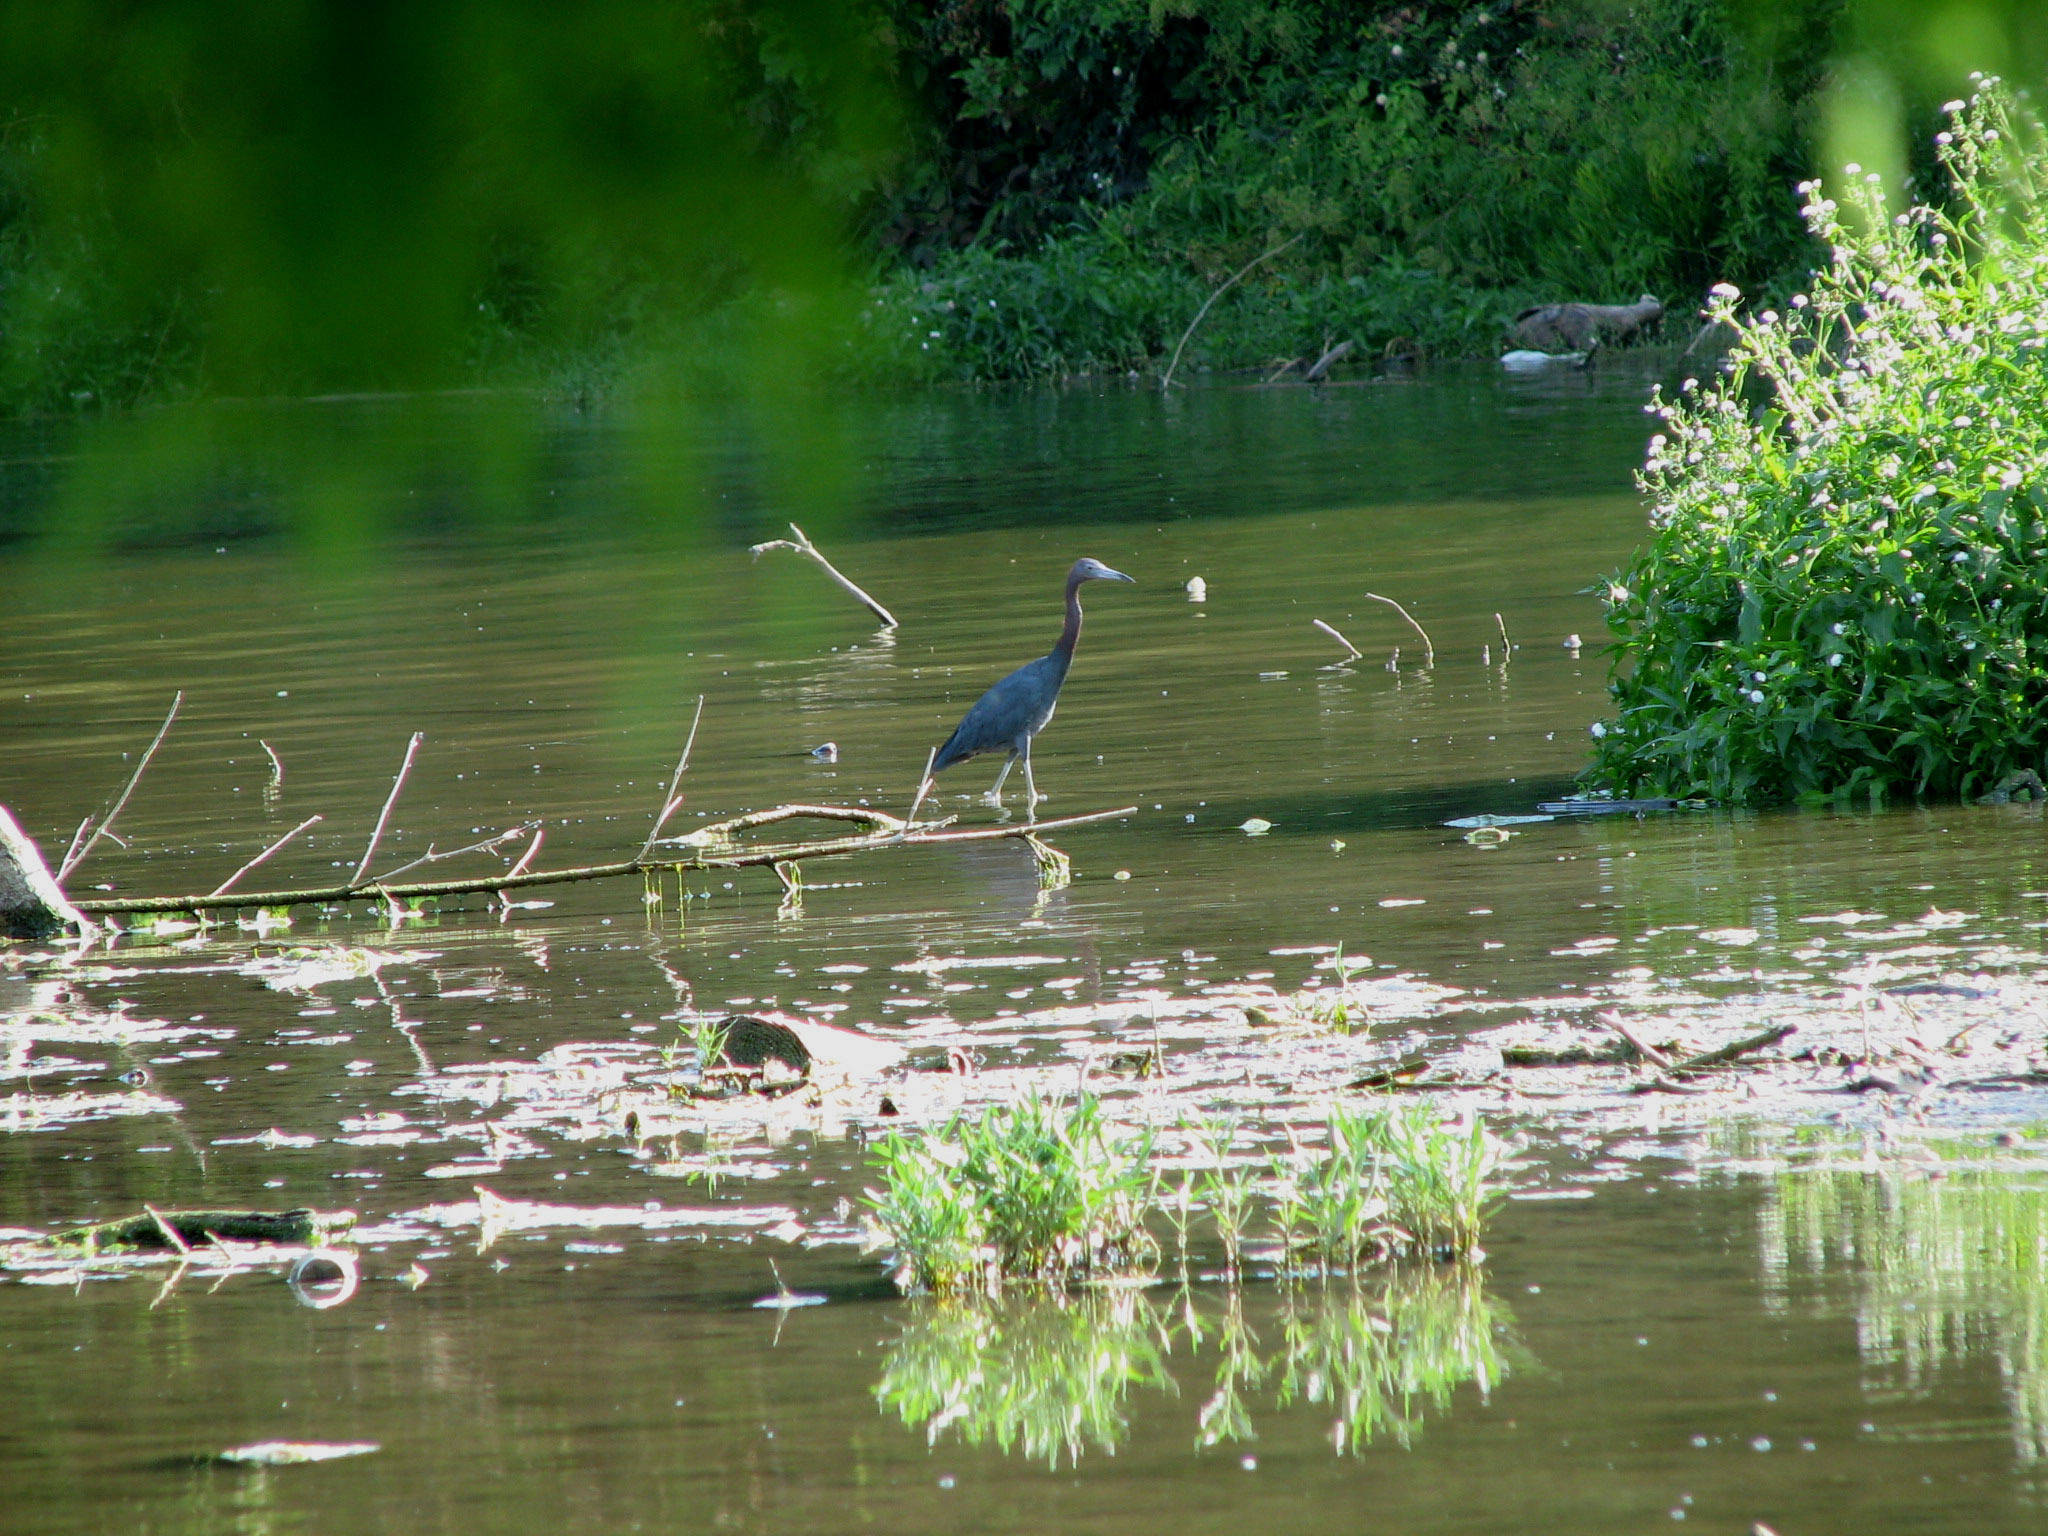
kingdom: Animalia
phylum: Chordata
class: Aves
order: Pelecaniformes
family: Ardeidae
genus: Egretta
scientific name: Egretta caerulea
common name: Little blue heron
